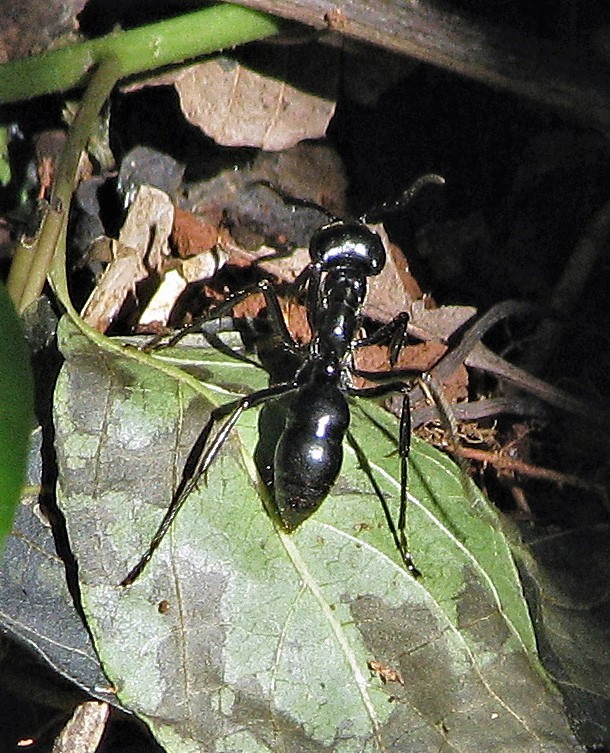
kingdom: Animalia
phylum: Arthropoda
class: Insecta
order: Hymenoptera
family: Formicidae
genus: Dinoponera
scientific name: Dinoponera grandis
